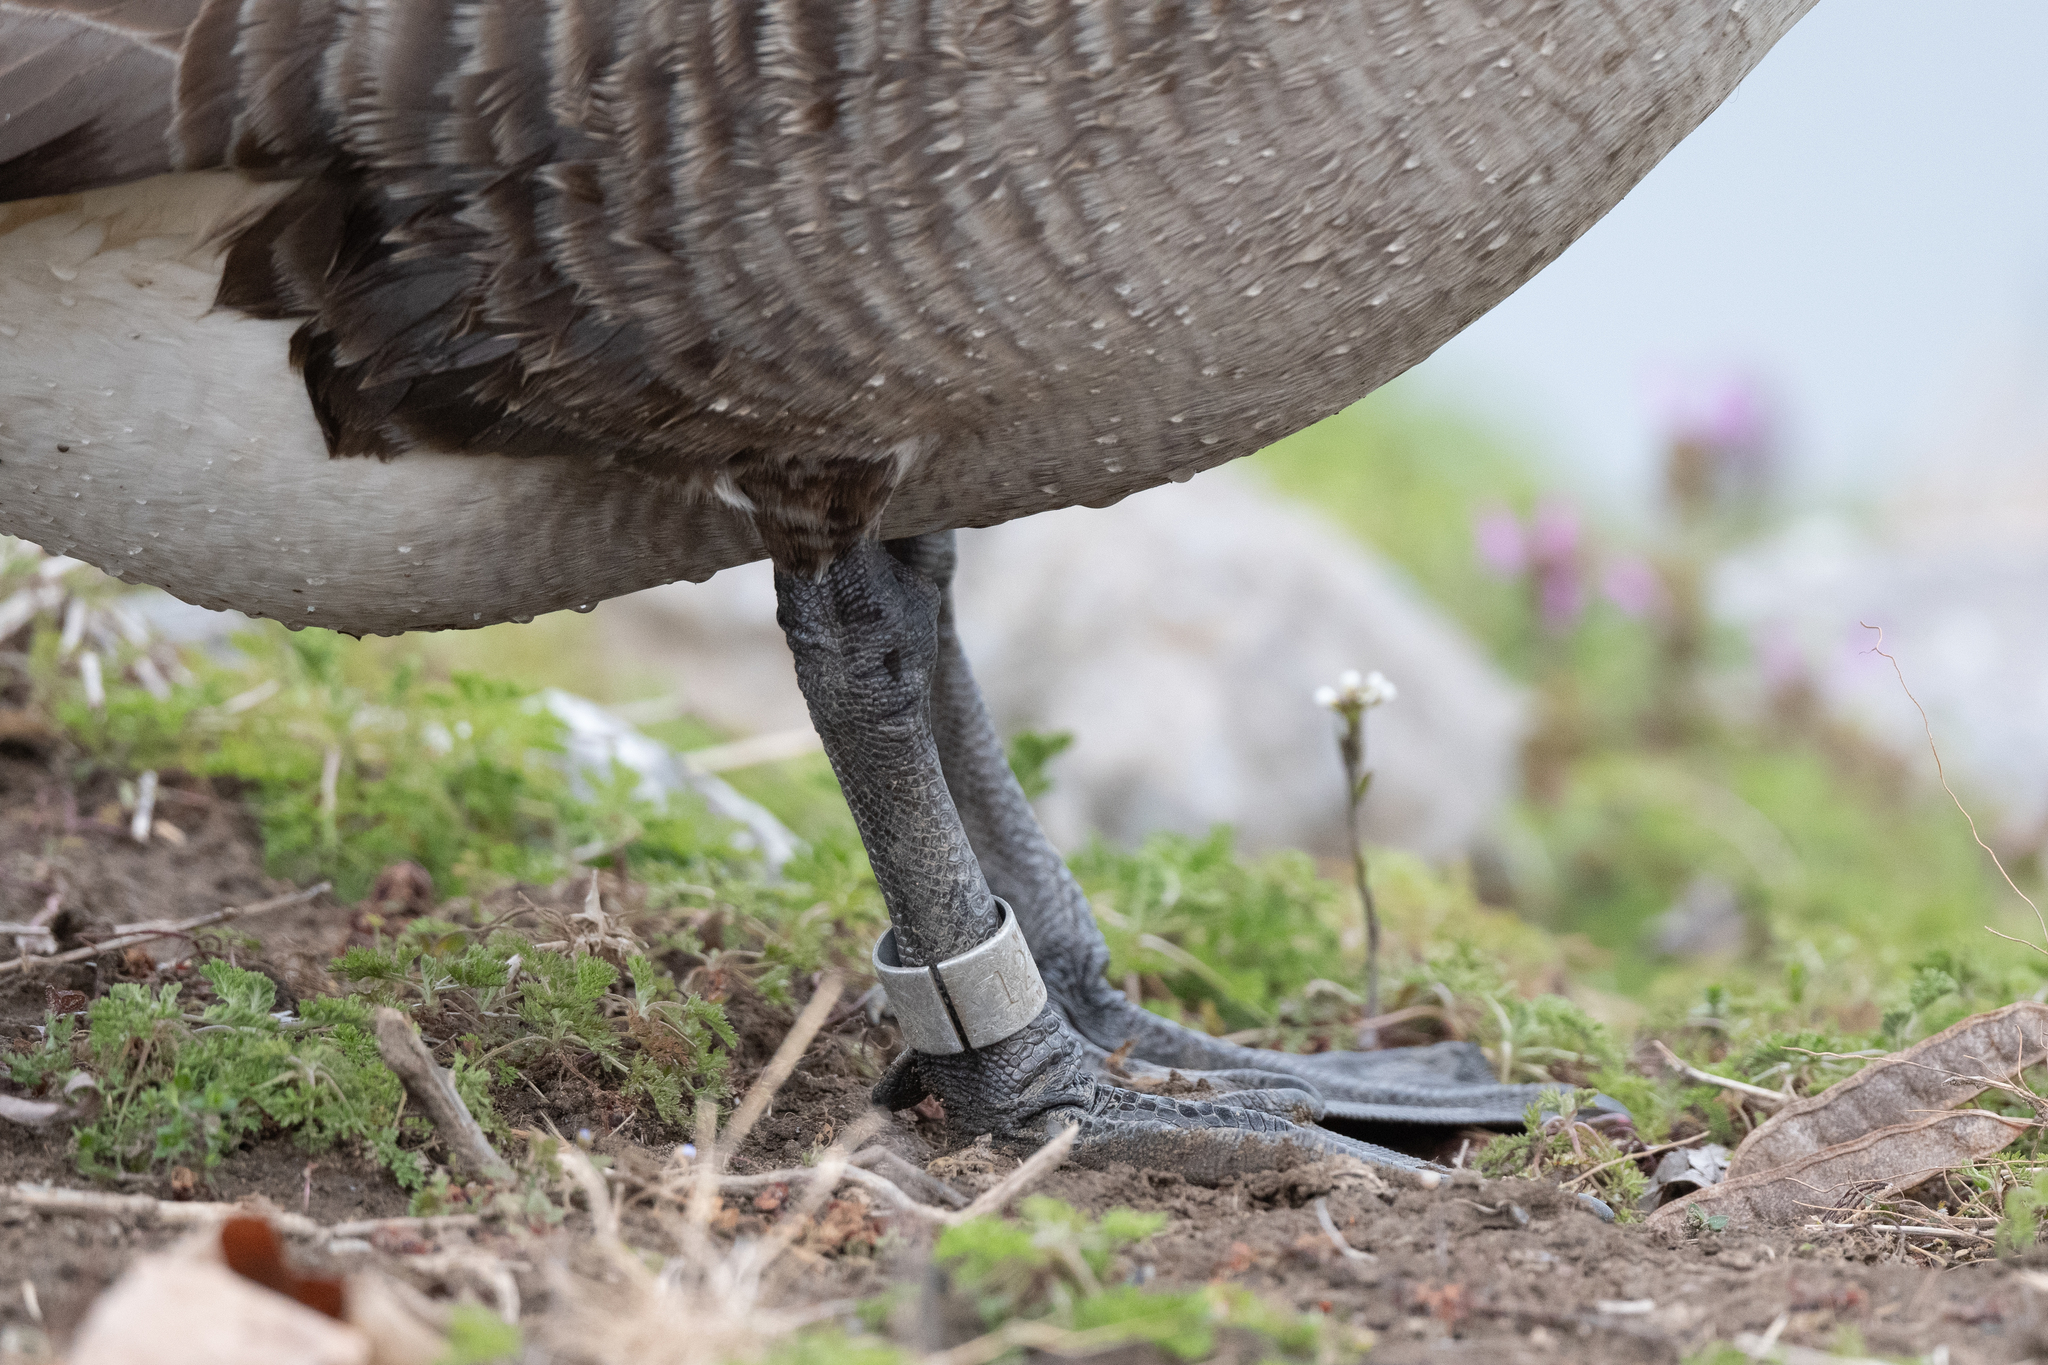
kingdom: Animalia
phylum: Chordata
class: Aves
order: Anseriformes
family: Anatidae
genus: Branta
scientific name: Branta canadensis
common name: Canada goose
